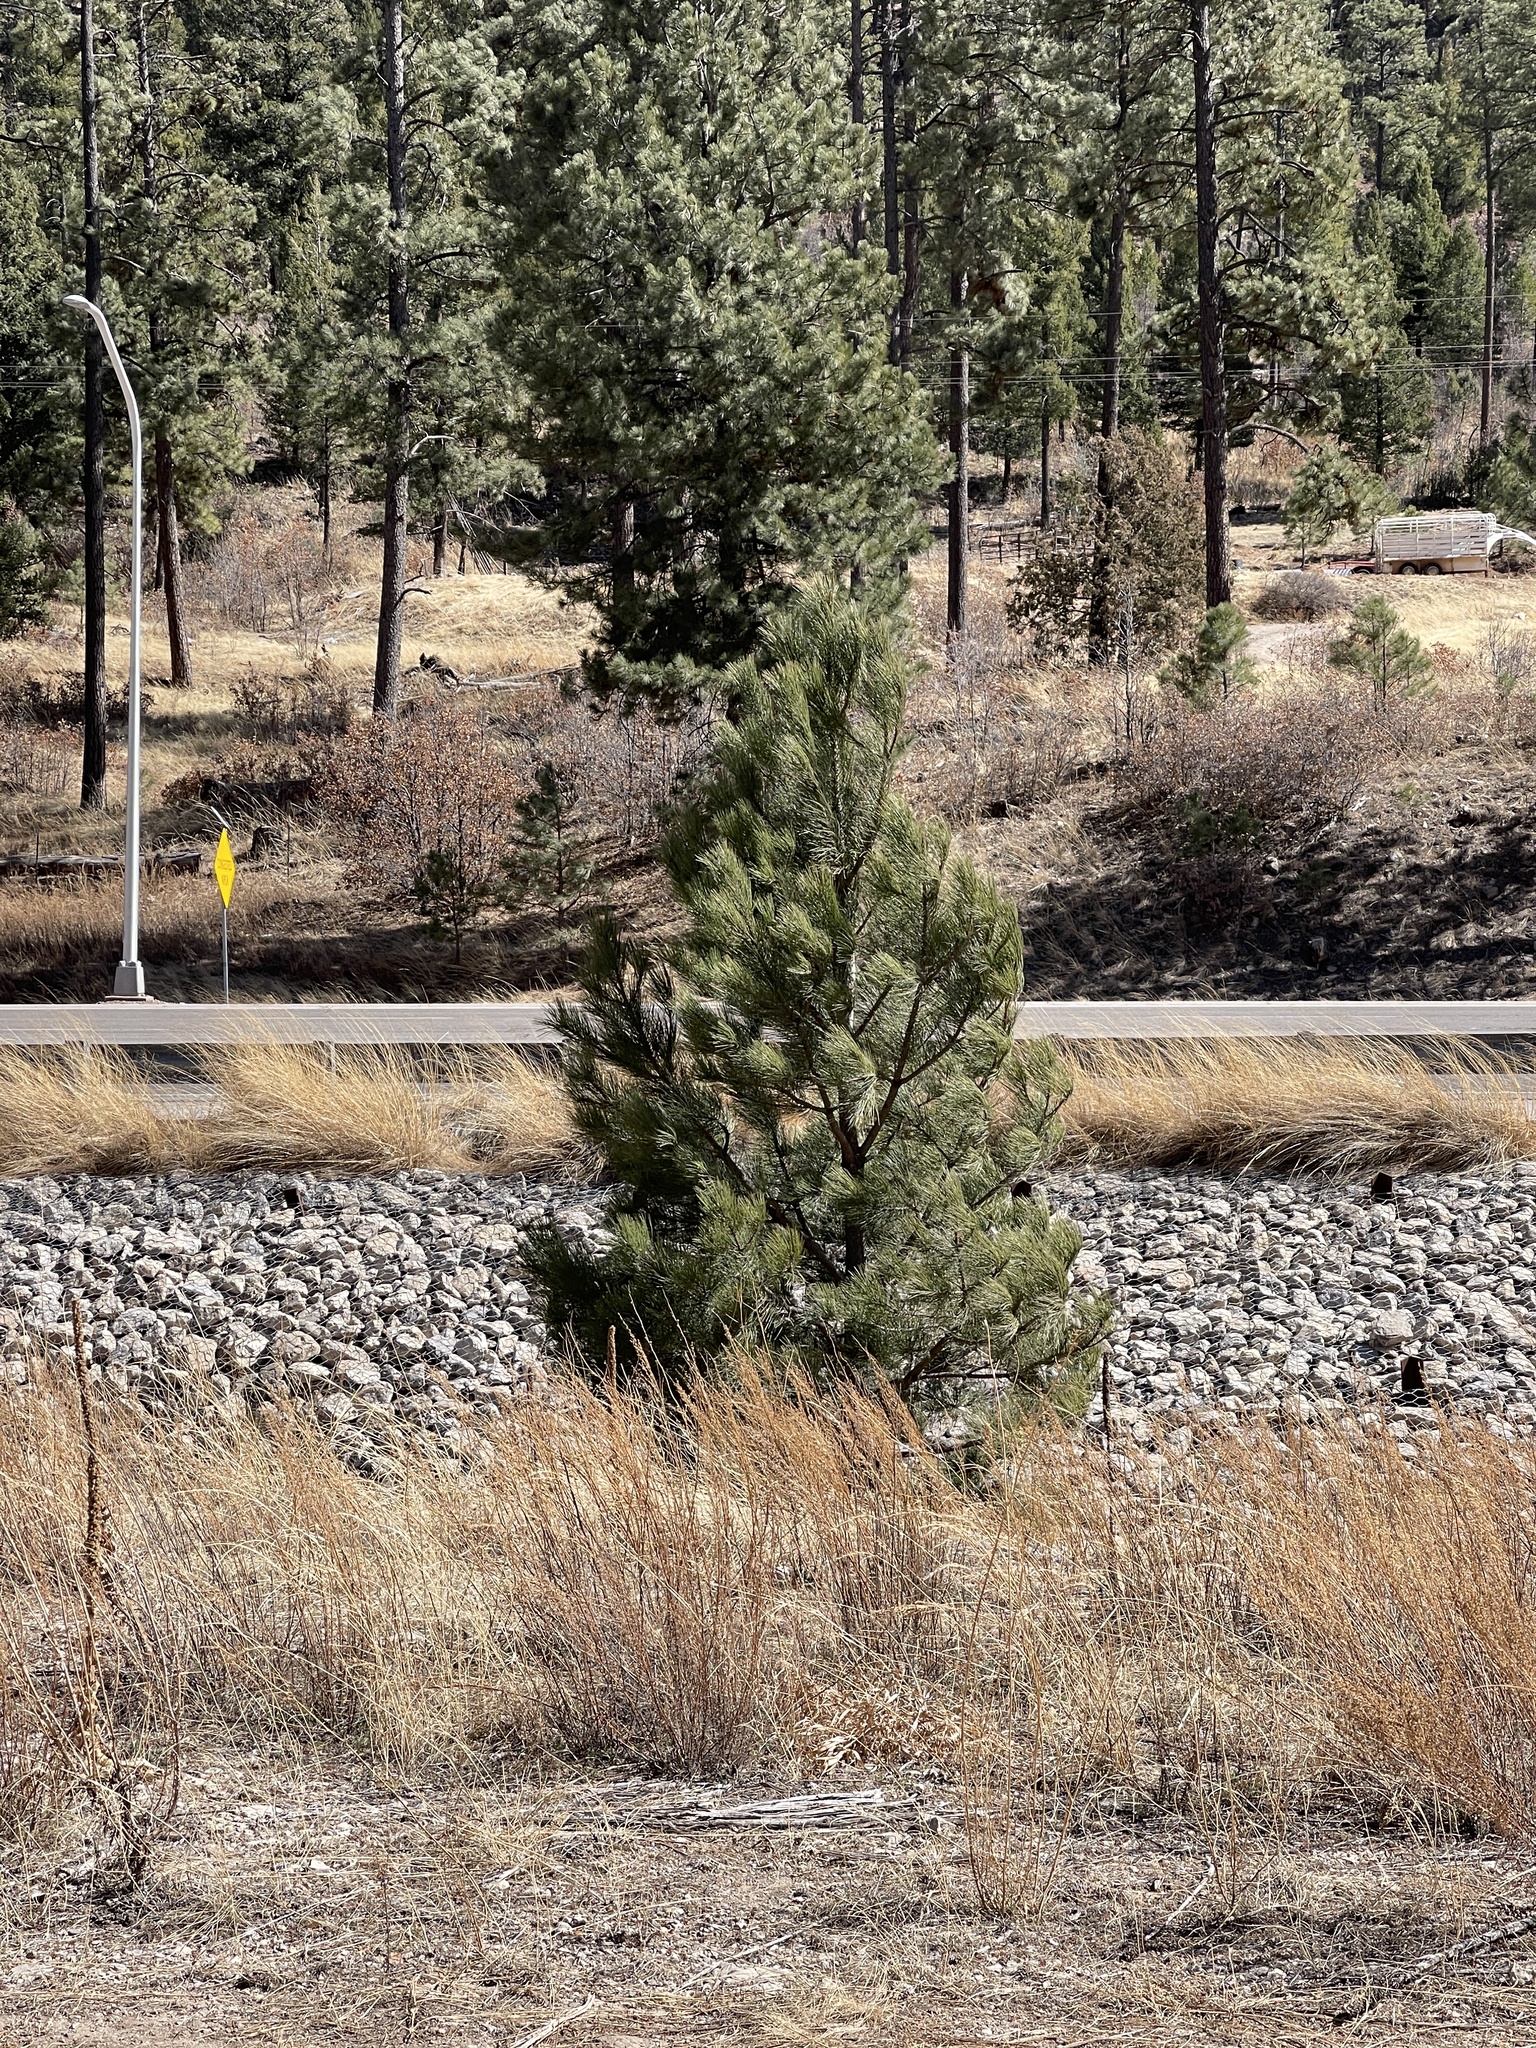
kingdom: Plantae
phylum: Tracheophyta
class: Pinopsida
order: Pinales
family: Pinaceae
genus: Pinus
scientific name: Pinus ponderosa
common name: Western yellow-pine
